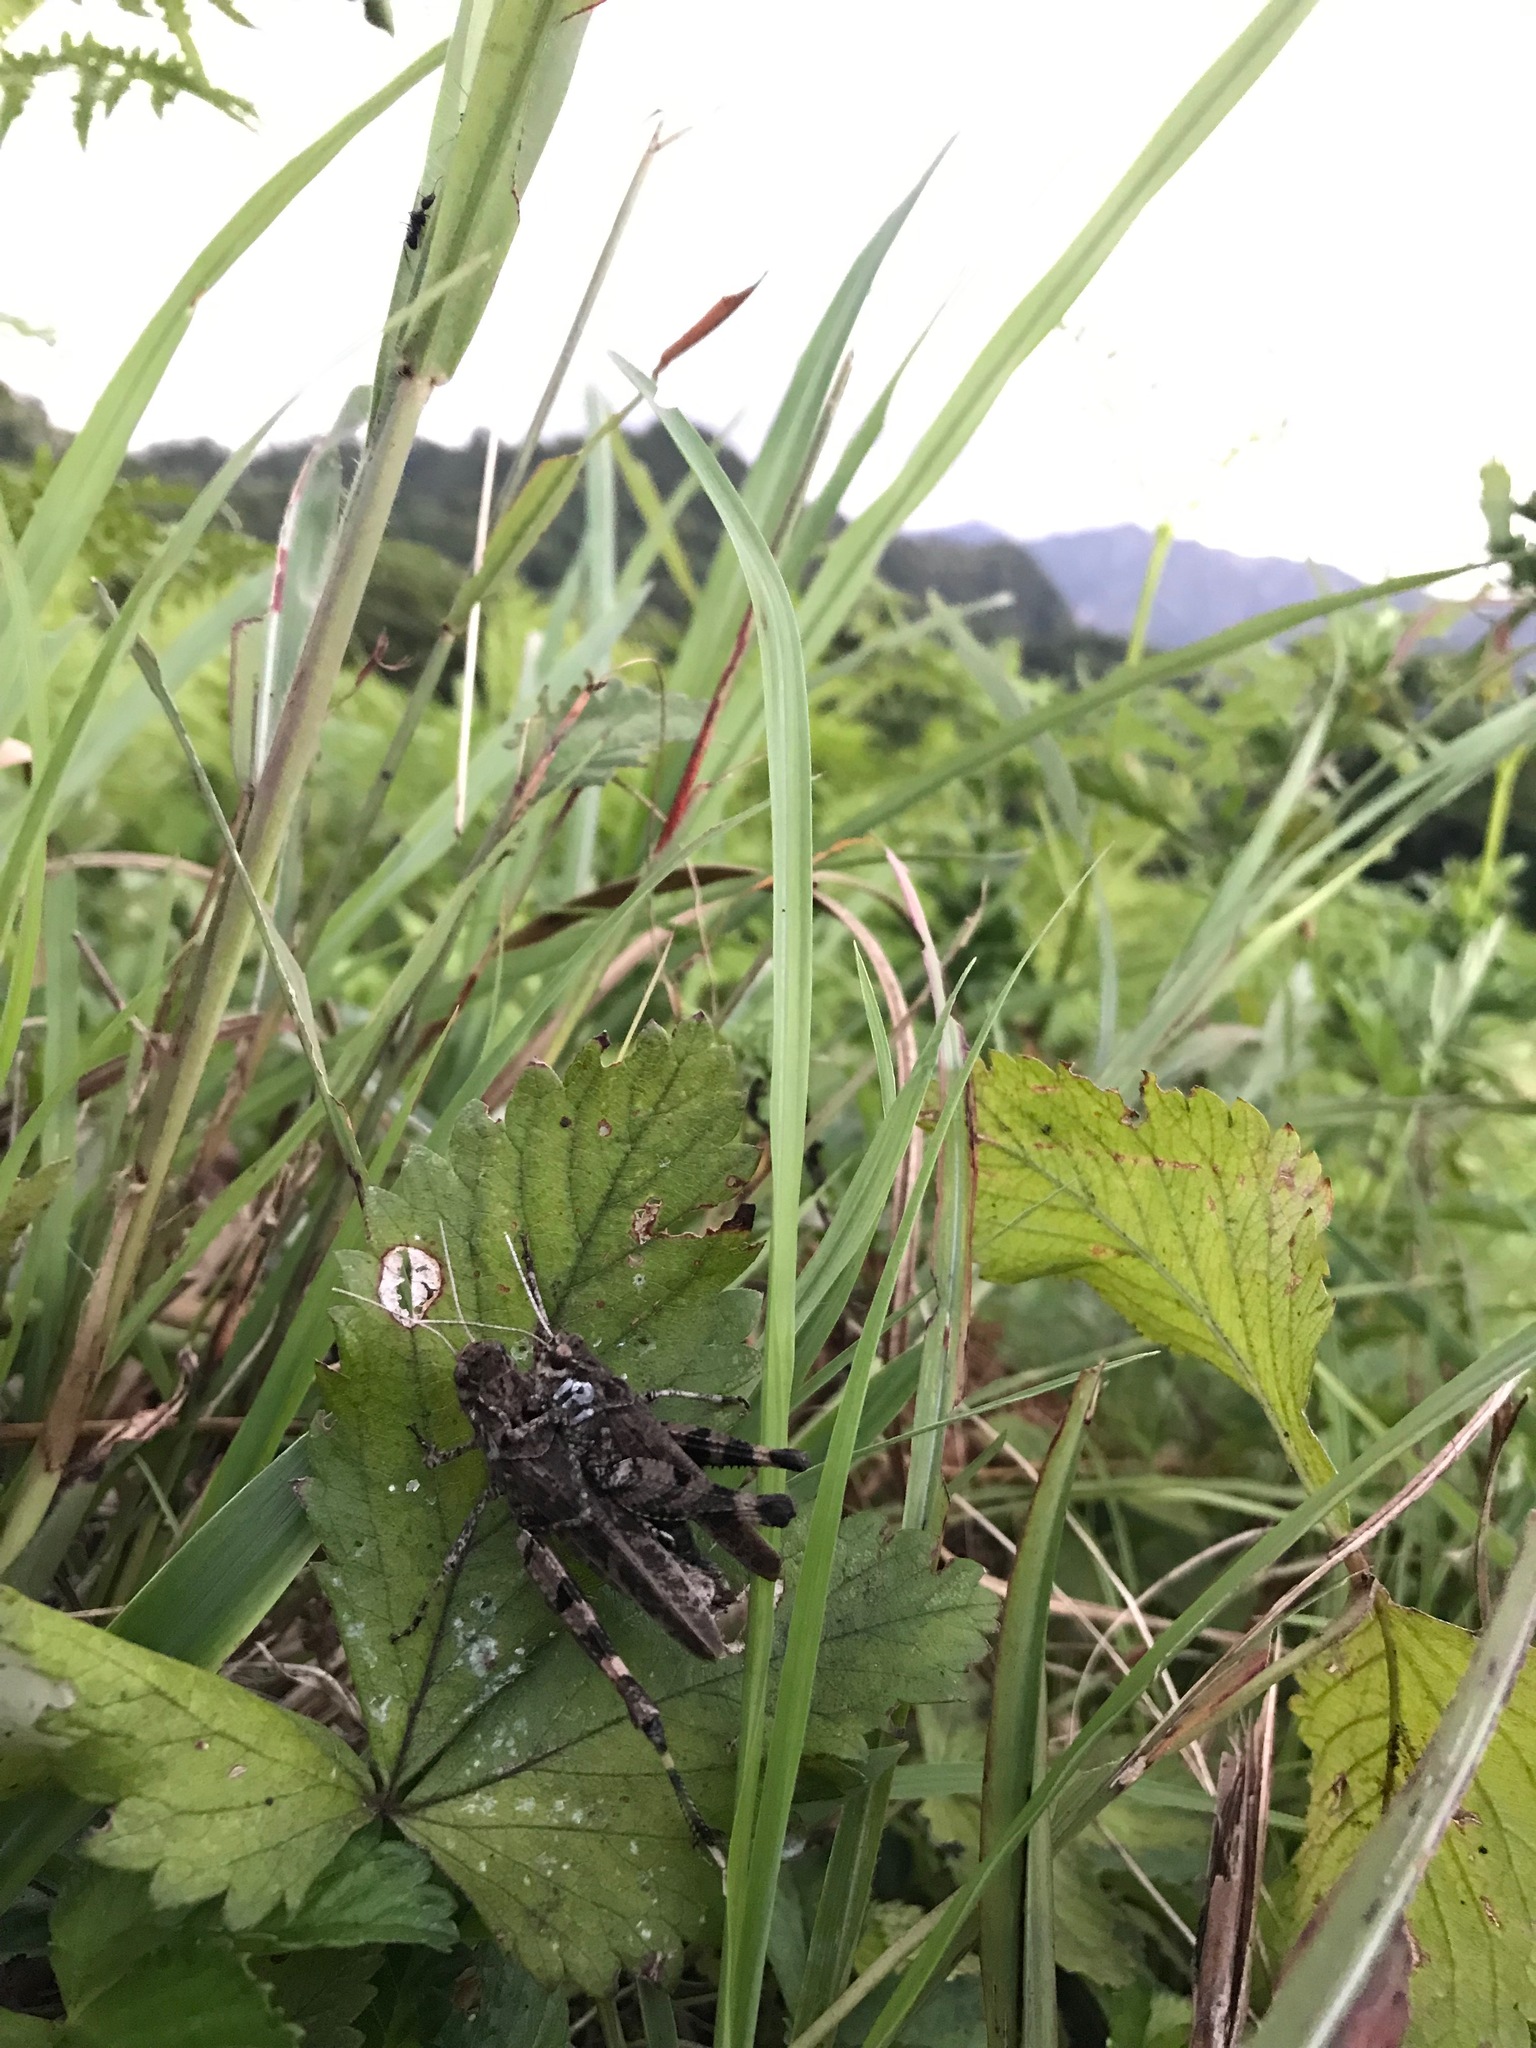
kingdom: Animalia
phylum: Arthropoda
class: Insecta
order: Orthoptera
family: Acrididae
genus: Celes
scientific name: Celes skalozubovi
